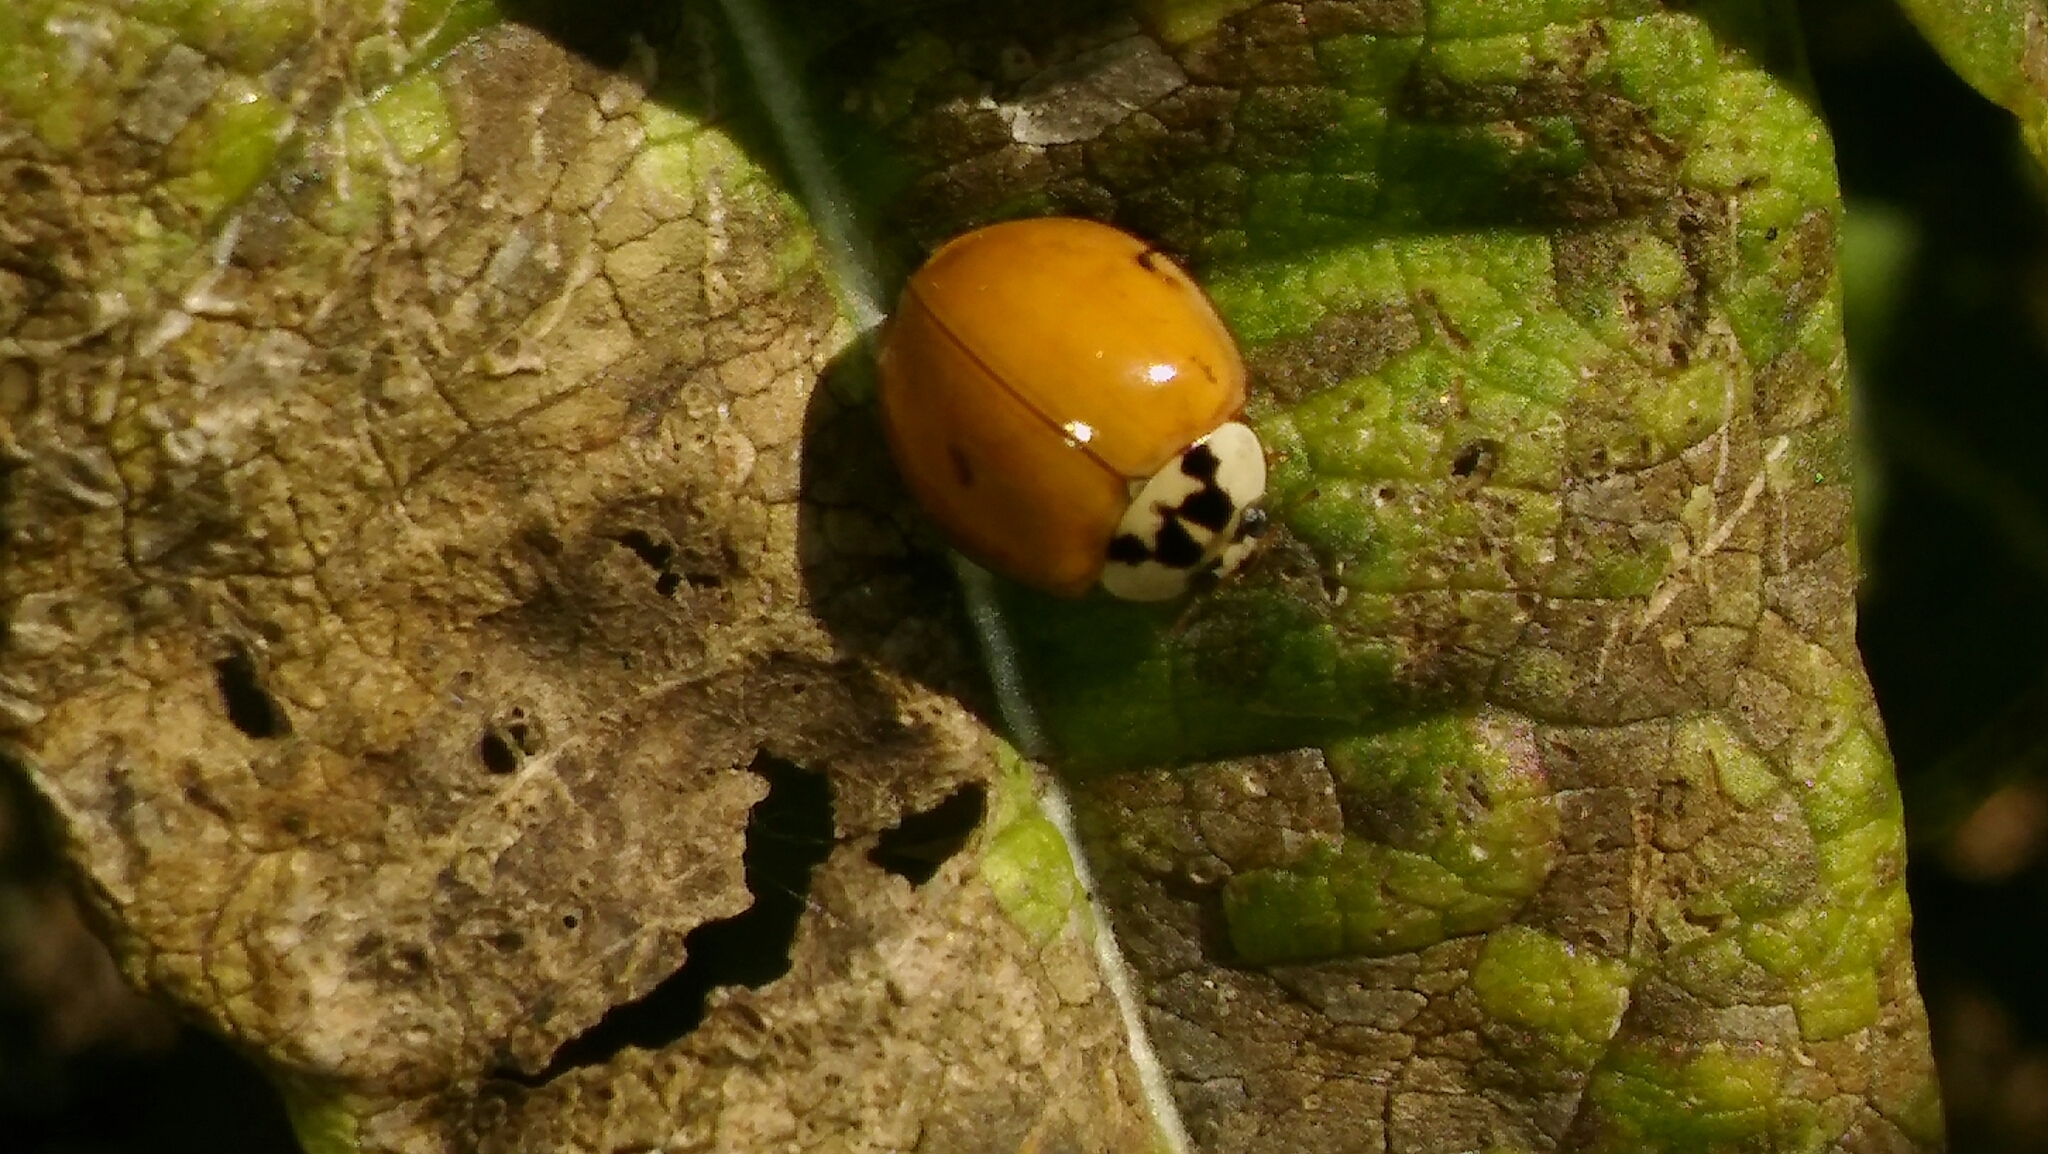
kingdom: Animalia
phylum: Arthropoda
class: Insecta
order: Coleoptera
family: Coccinellidae
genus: Harmonia
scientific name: Harmonia axyridis
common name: Harlequin ladybird
